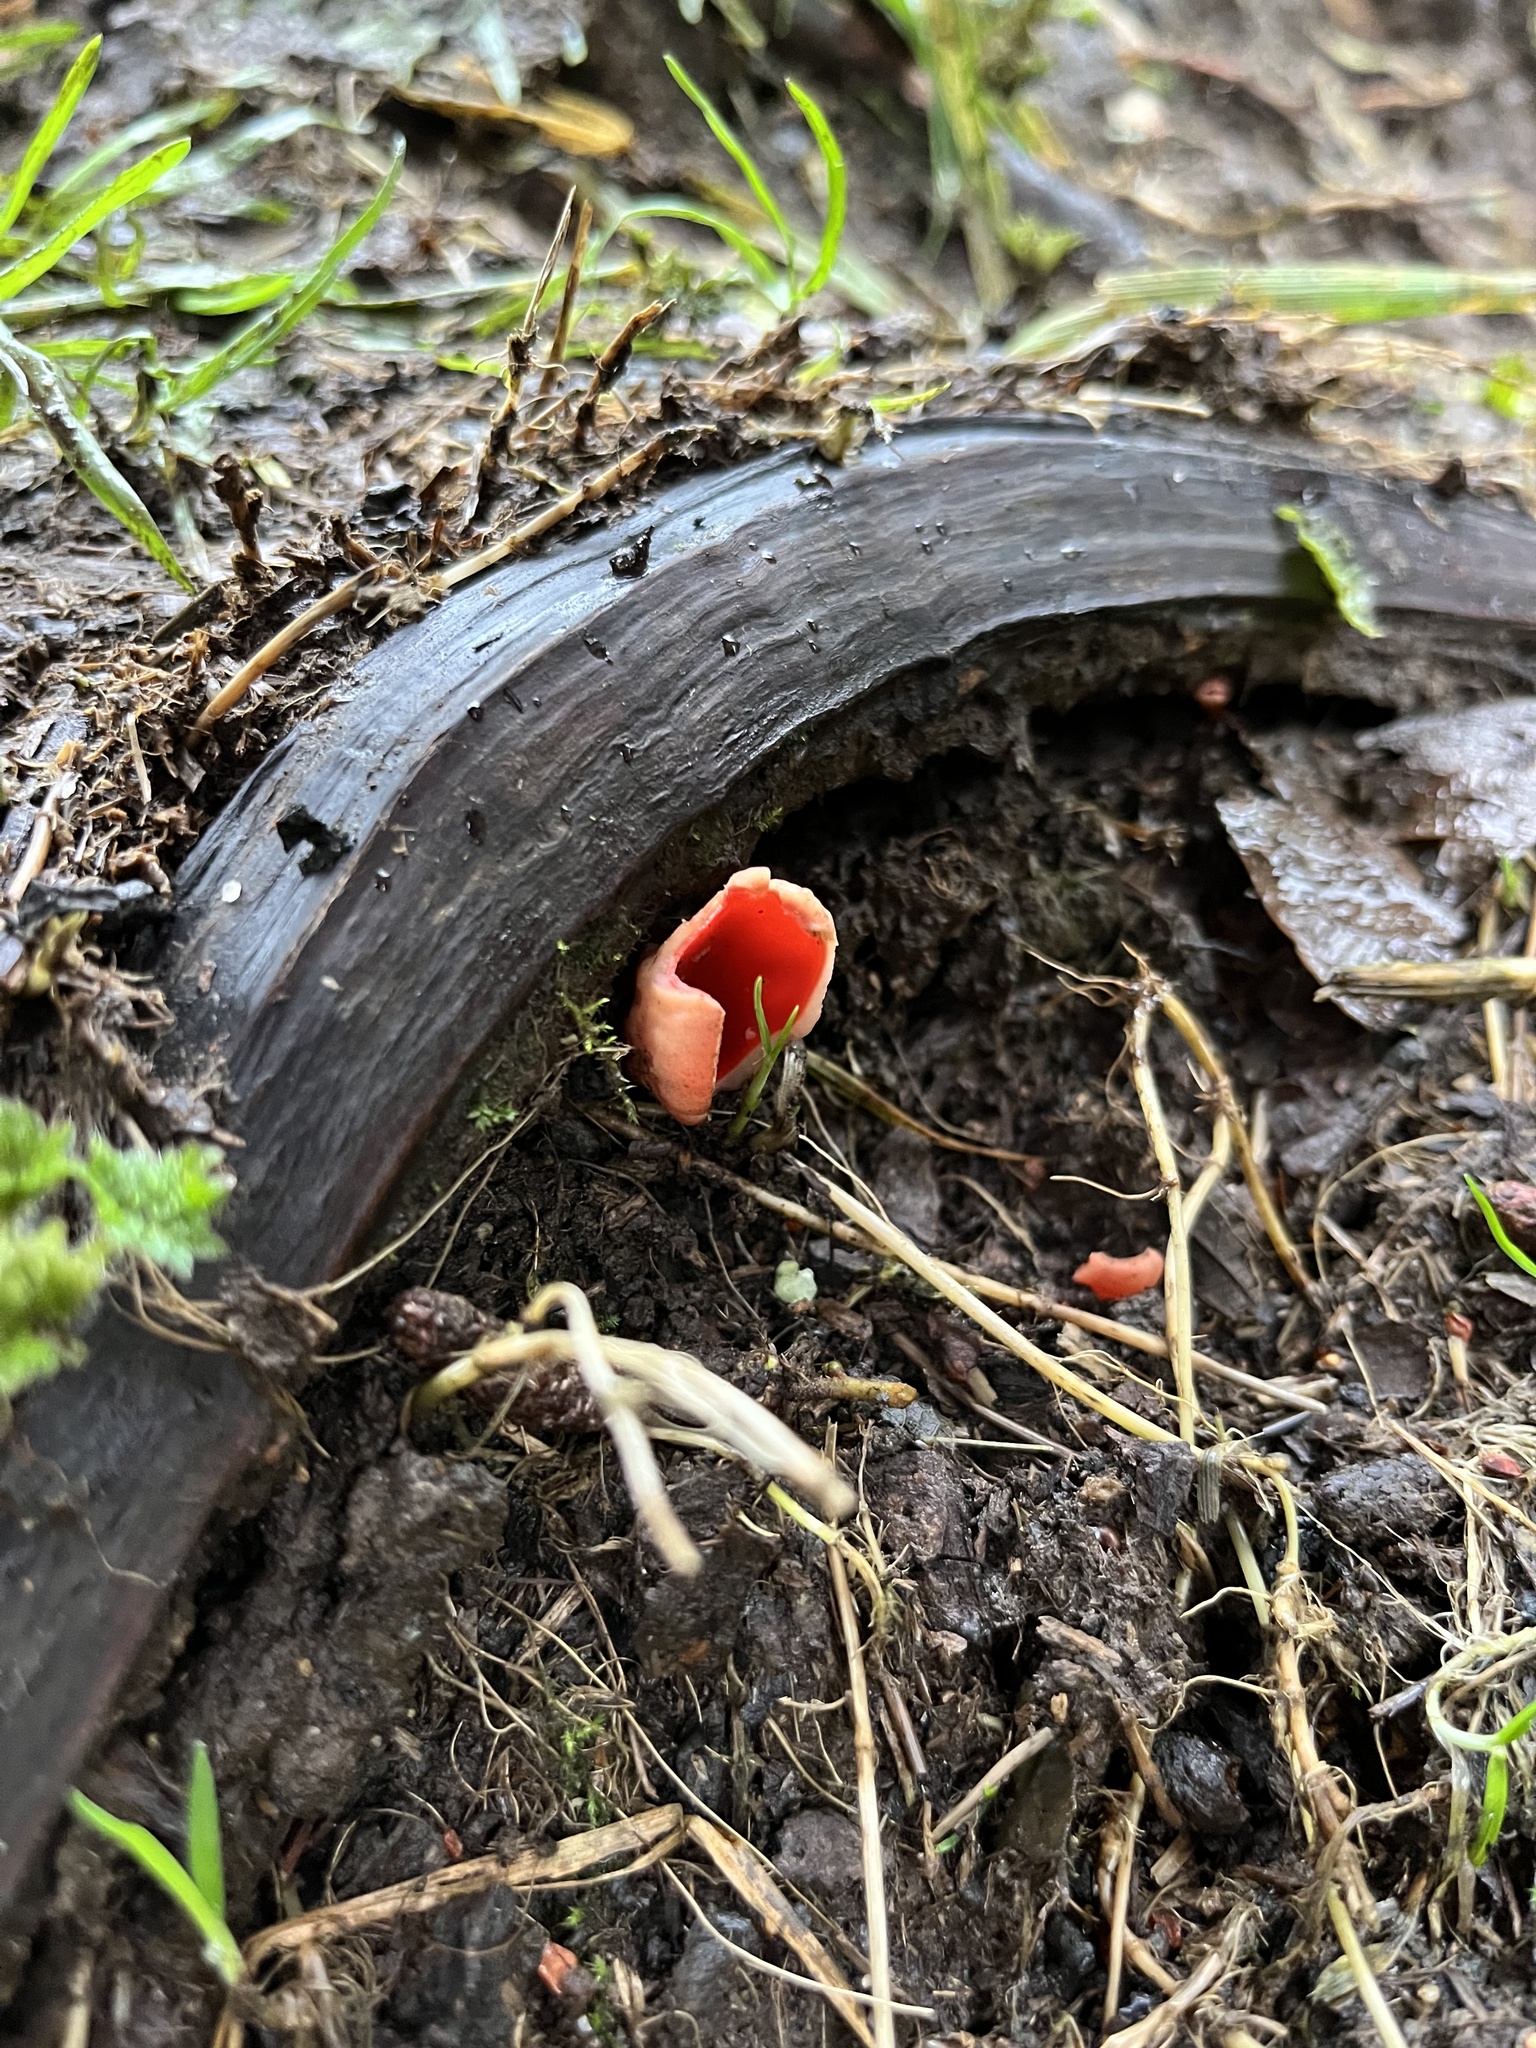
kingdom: Fungi
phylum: Ascomycota
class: Pezizomycetes
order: Pezizales
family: Sarcoscyphaceae
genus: Sarcoscypha
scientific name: Sarcoscypha
